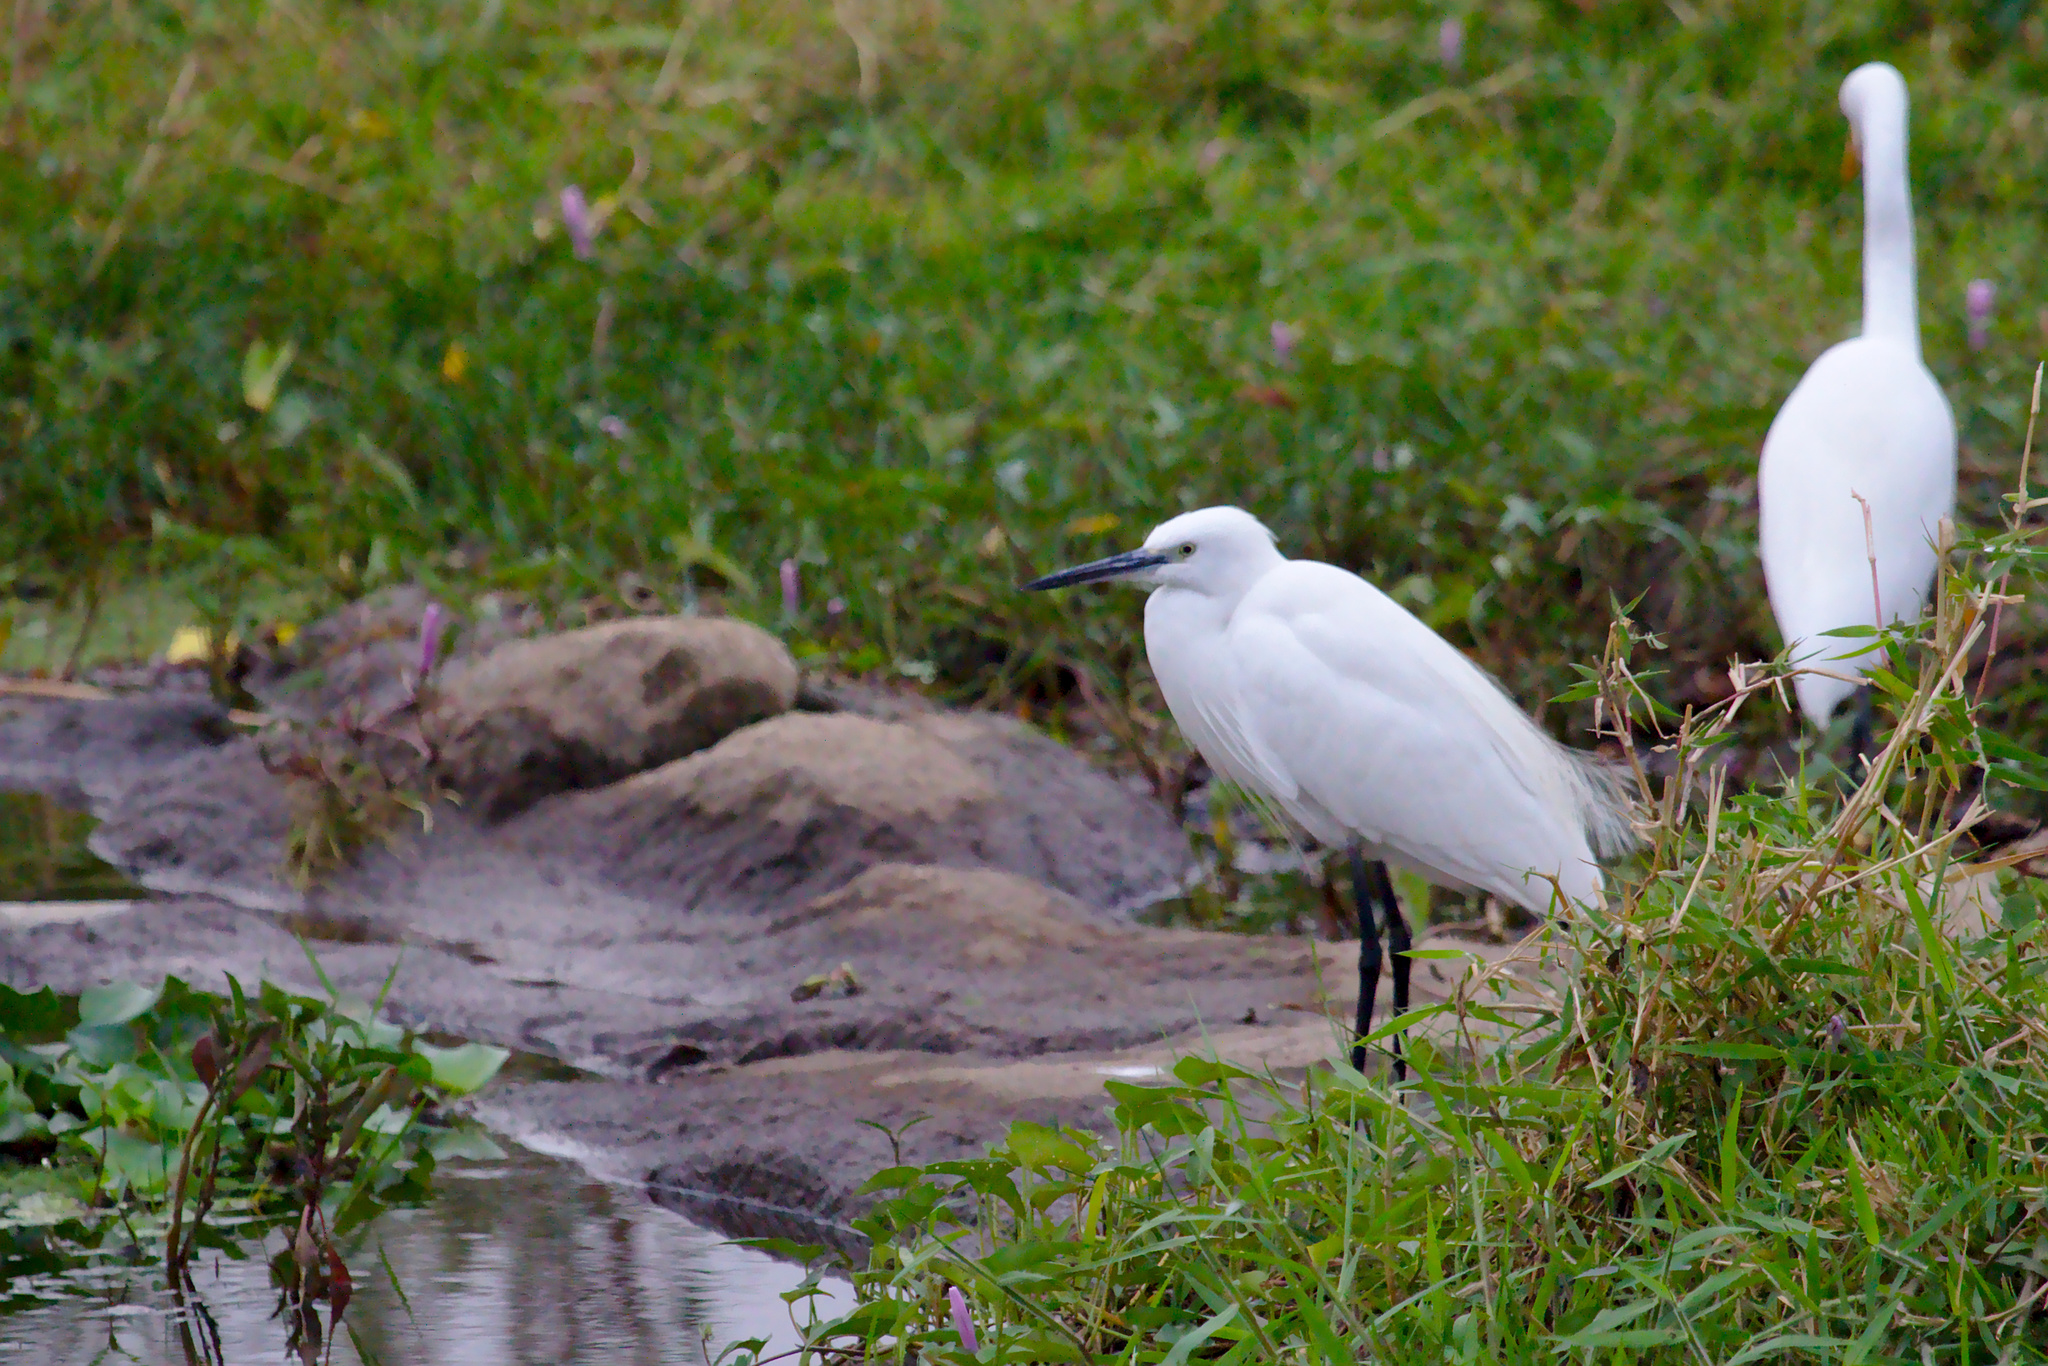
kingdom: Animalia
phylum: Chordata
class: Aves
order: Pelecaniformes
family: Ardeidae
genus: Egretta
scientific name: Egretta garzetta
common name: Little egret
